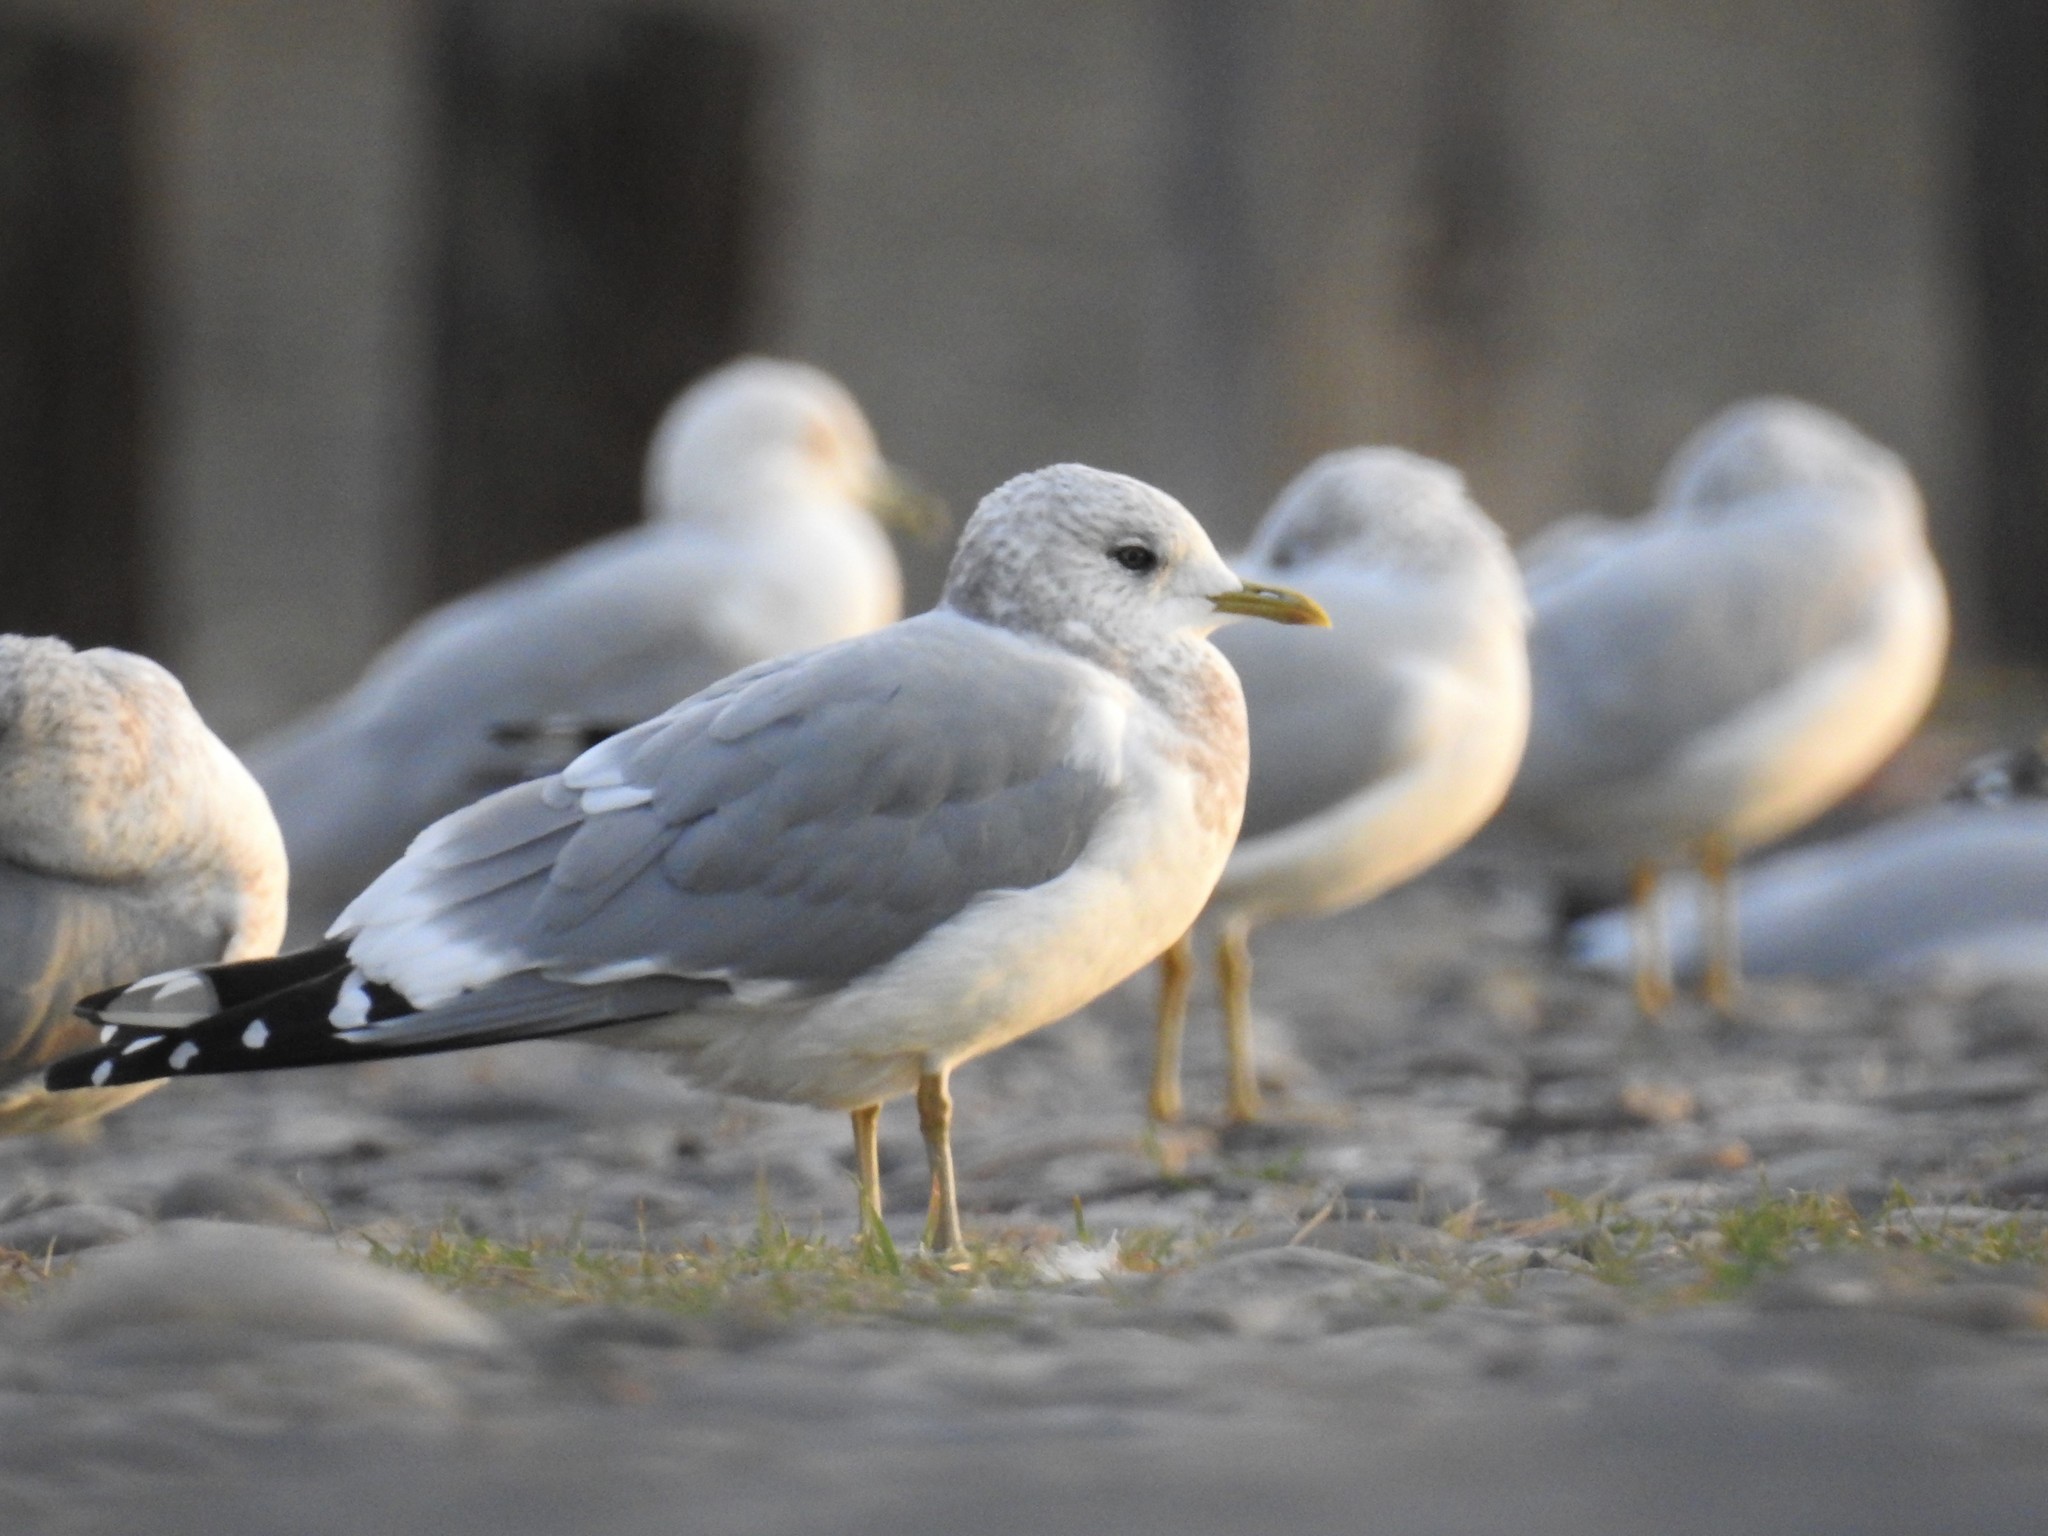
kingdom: Animalia
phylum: Chordata
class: Aves
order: Charadriiformes
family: Laridae
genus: Larus
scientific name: Larus brachyrhynchus
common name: Short-billed gull
